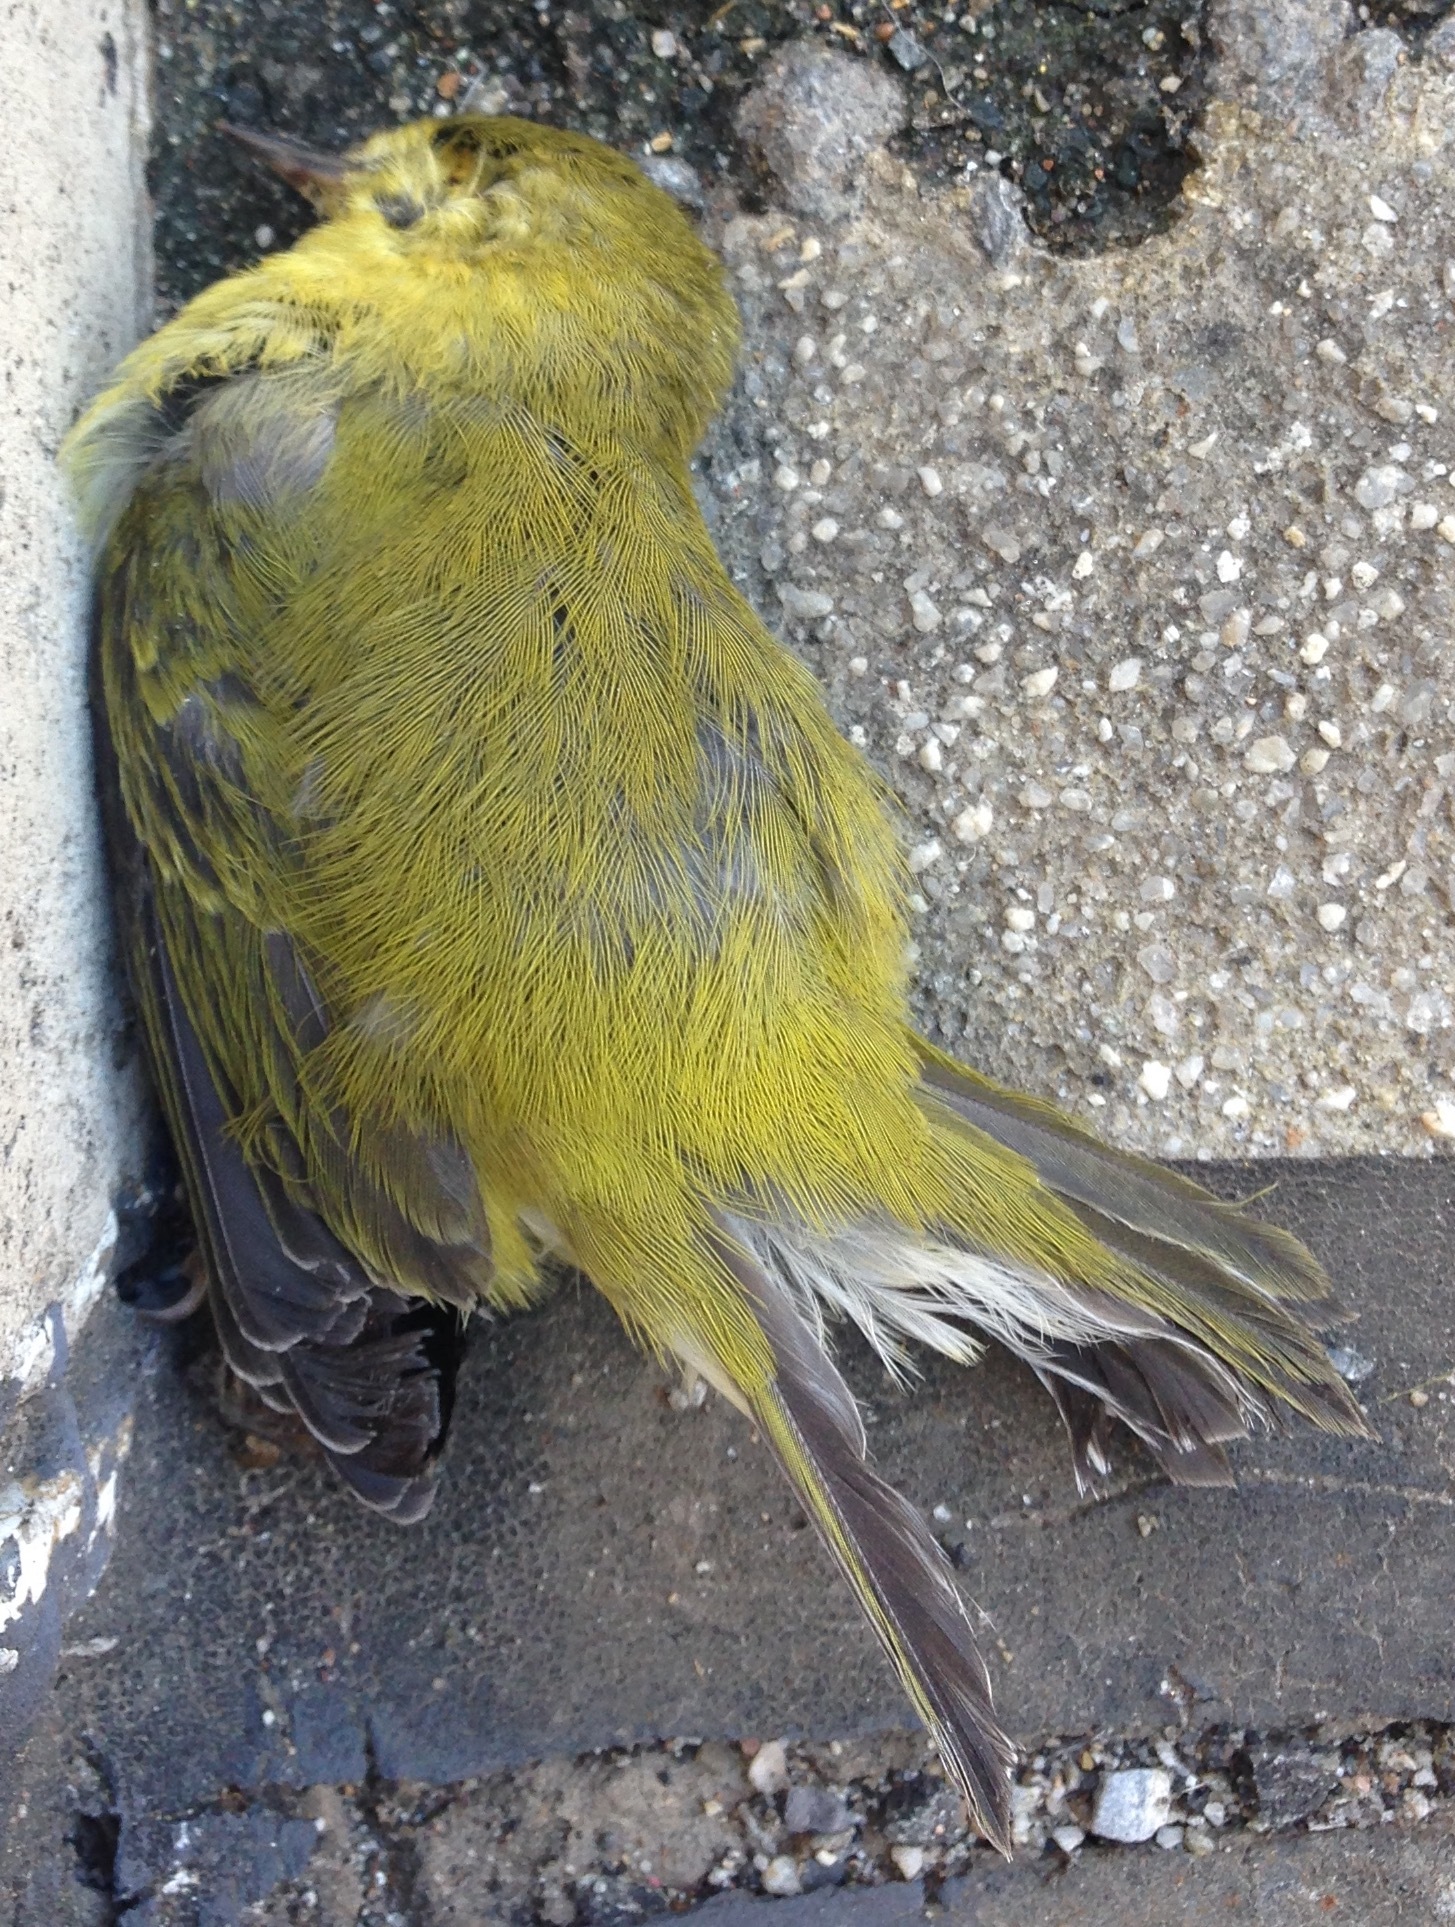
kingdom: Animalia
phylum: Chordata
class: Aves
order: Passeriformes
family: Parulidae
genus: Leiothlypis
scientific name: Leiothlypis peregrina
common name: Tennessee warbler
